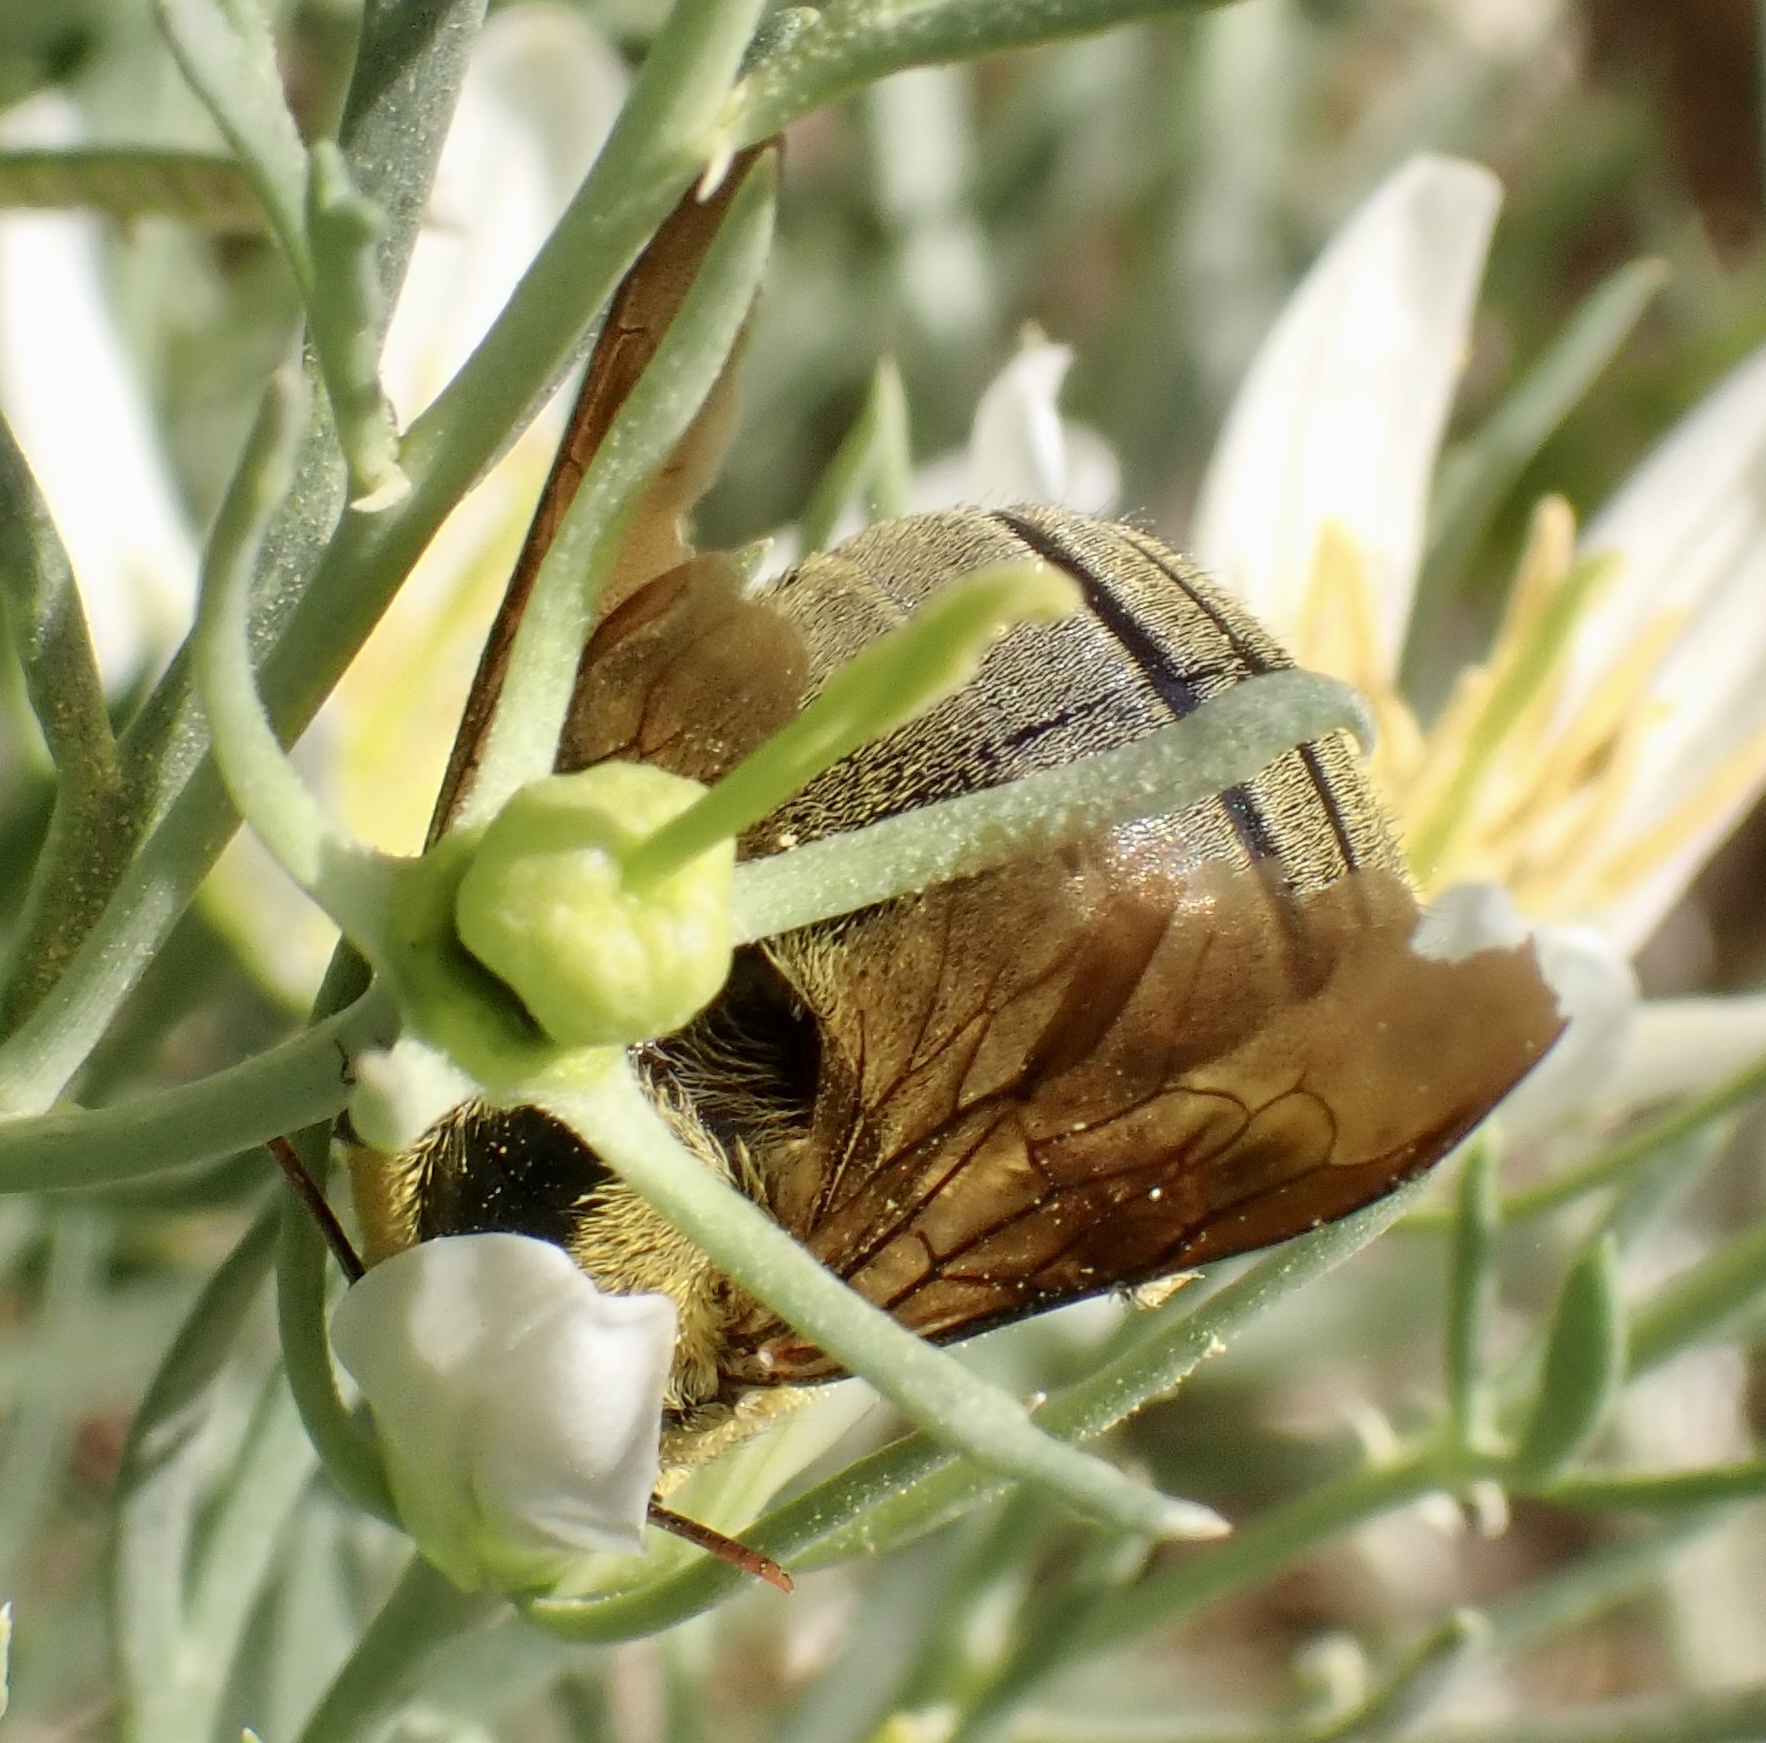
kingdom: Animalia
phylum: Arthropoda
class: Insecta
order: Hymenoptera
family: Apidae
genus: Xylocopa
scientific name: Xylocopa pubescens
